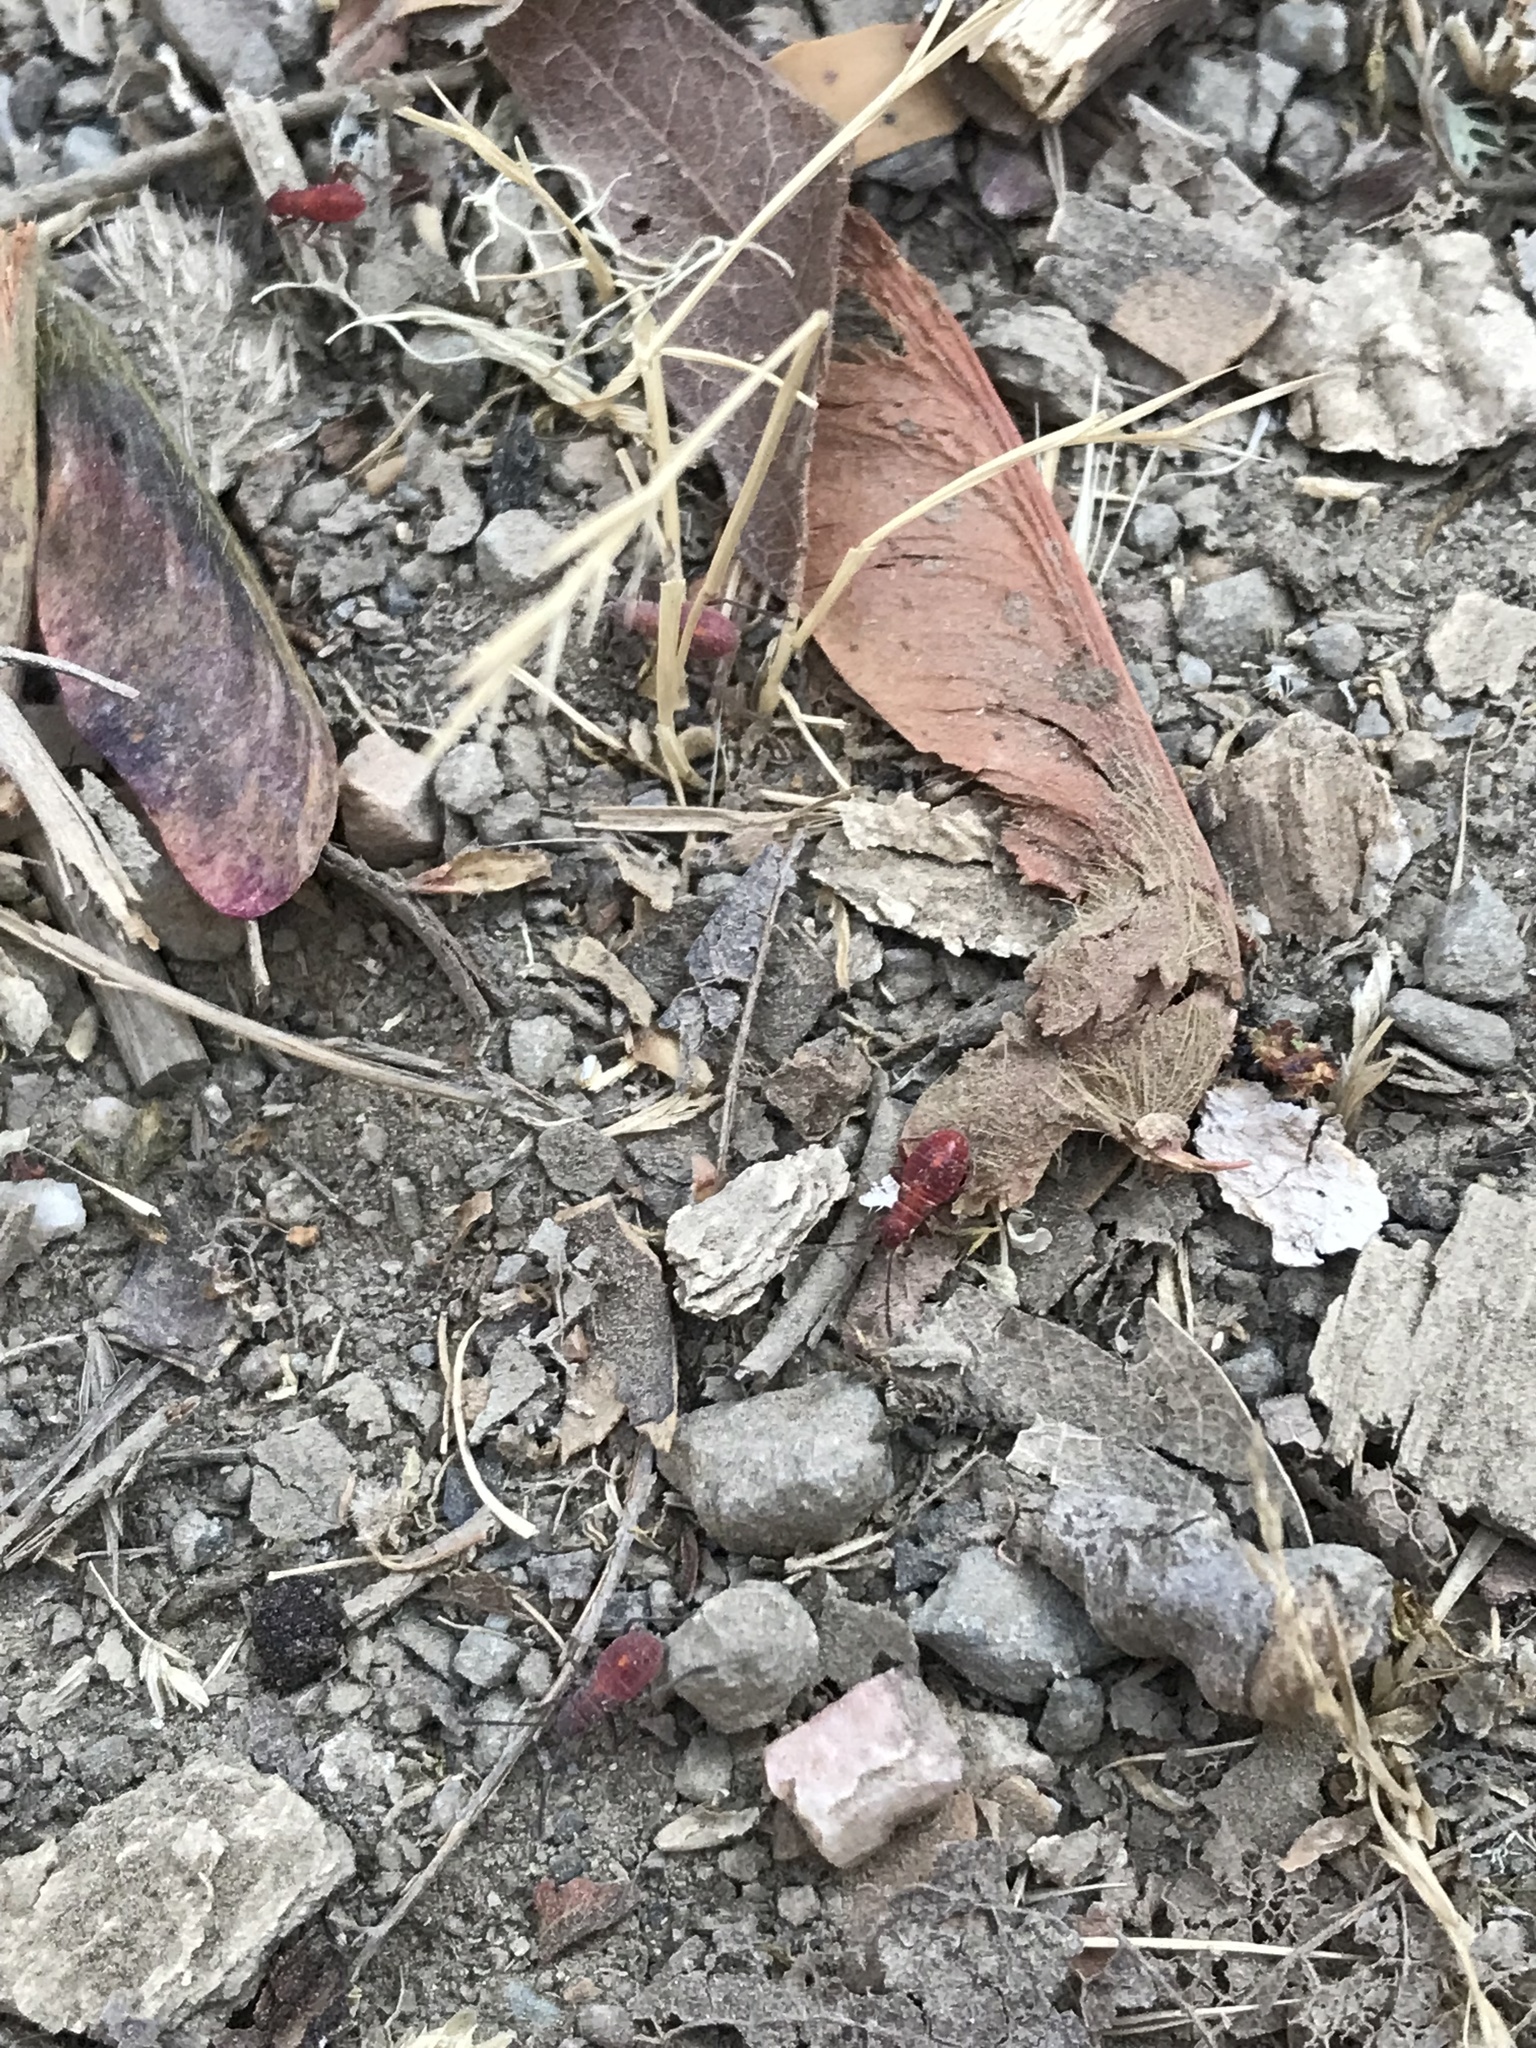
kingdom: Animalia
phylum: Arthropoda
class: Insecta
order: Hemiptera
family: Rhopalidae
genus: Boisea
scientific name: Boisea rubrolineata
